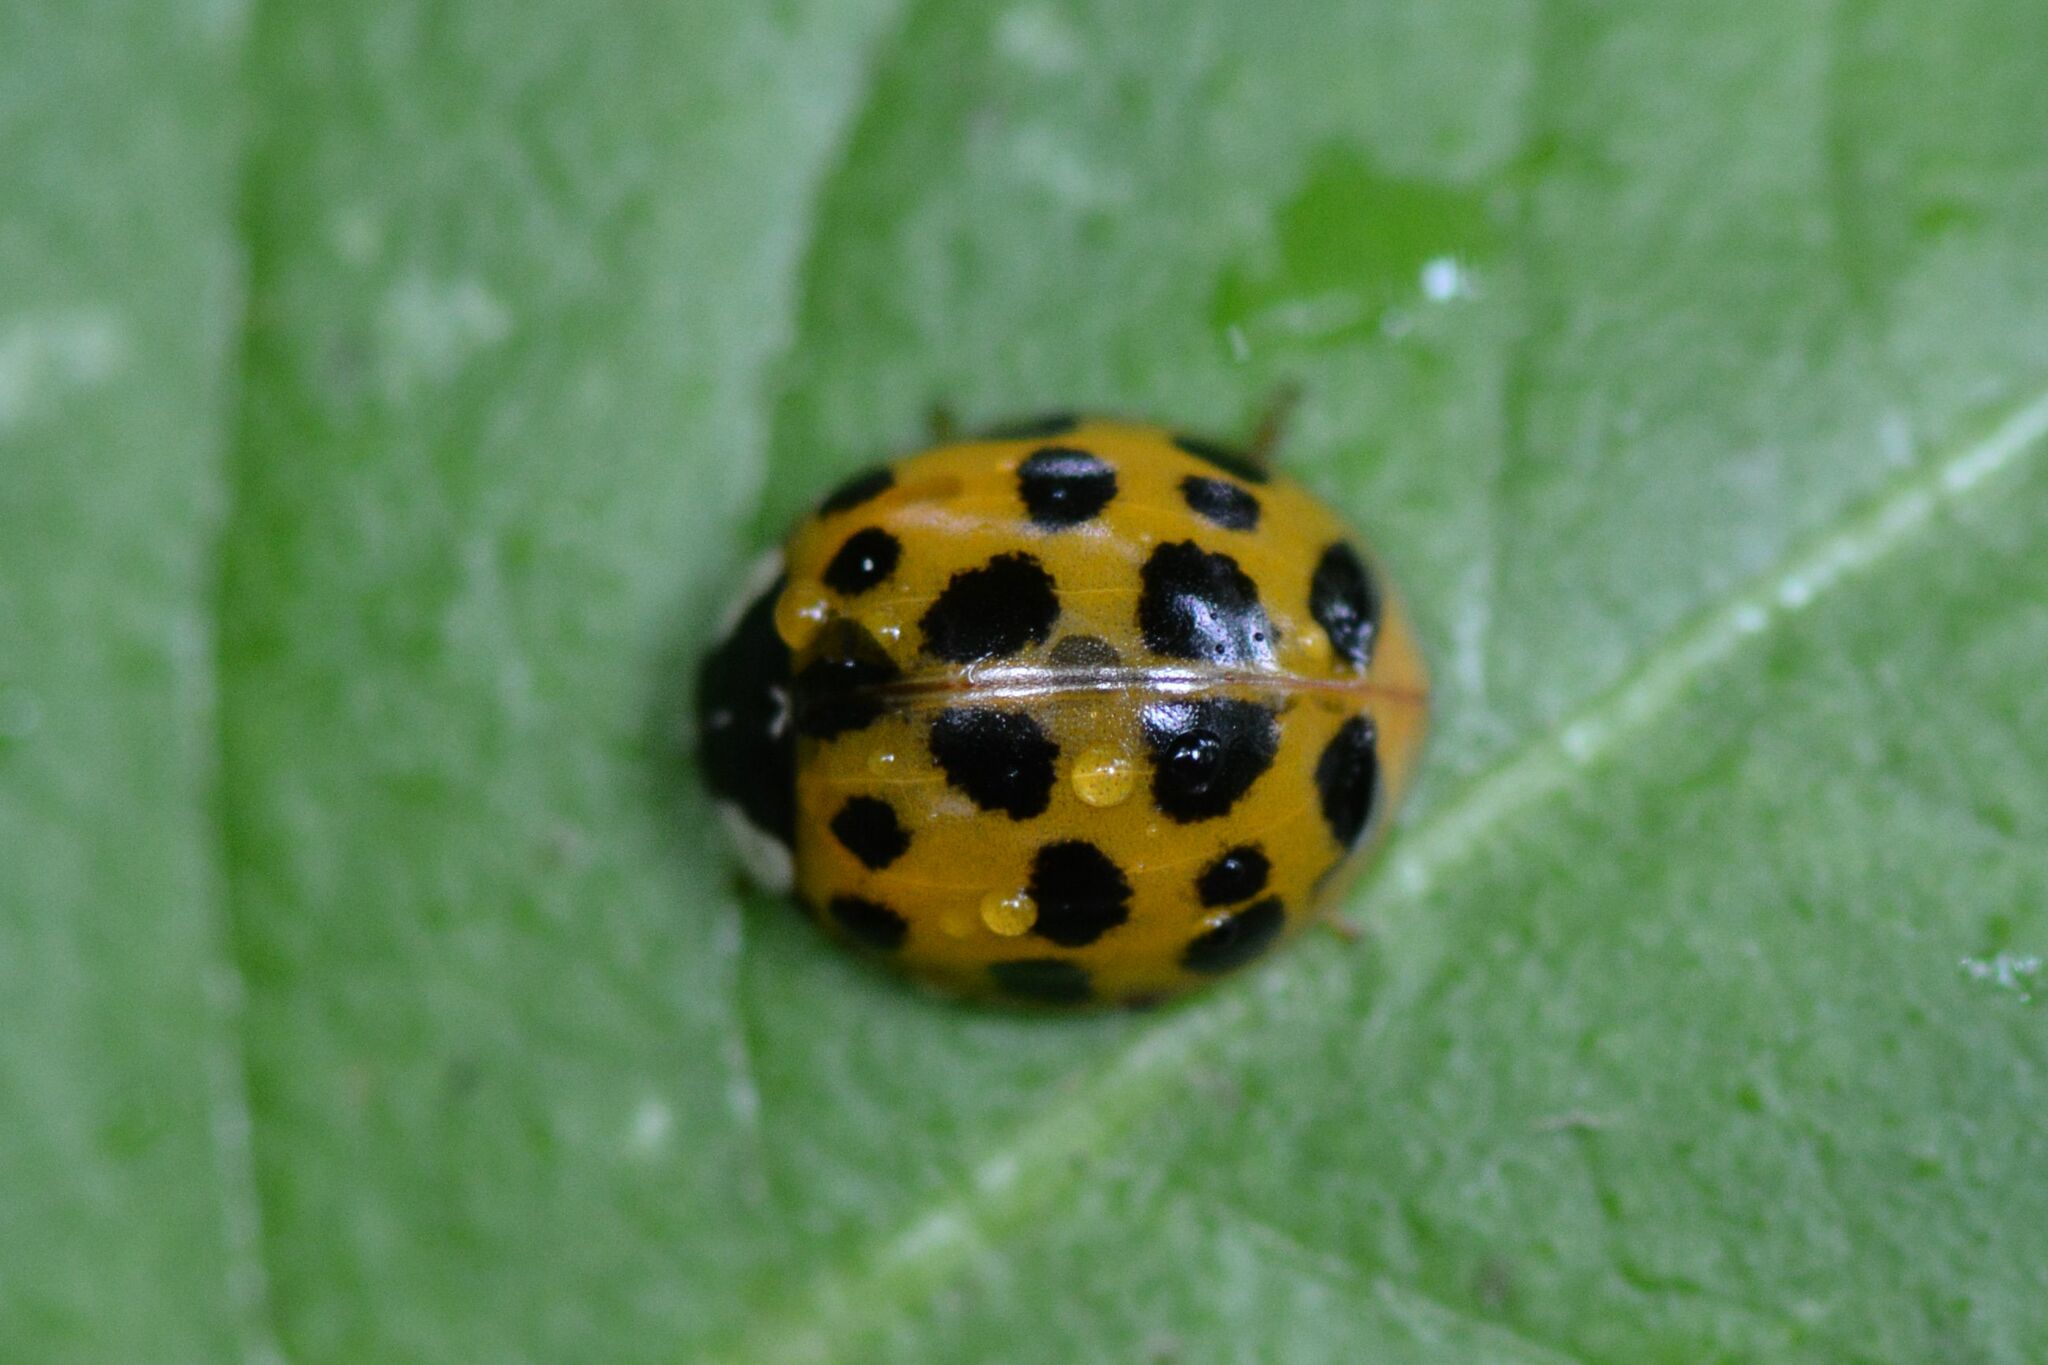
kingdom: Animalia
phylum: Arthropoda
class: Insecta
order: Coleoptera
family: Coccinellidae
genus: Harmonia
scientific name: Harmonia axyridis
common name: Harlequin ladybird
